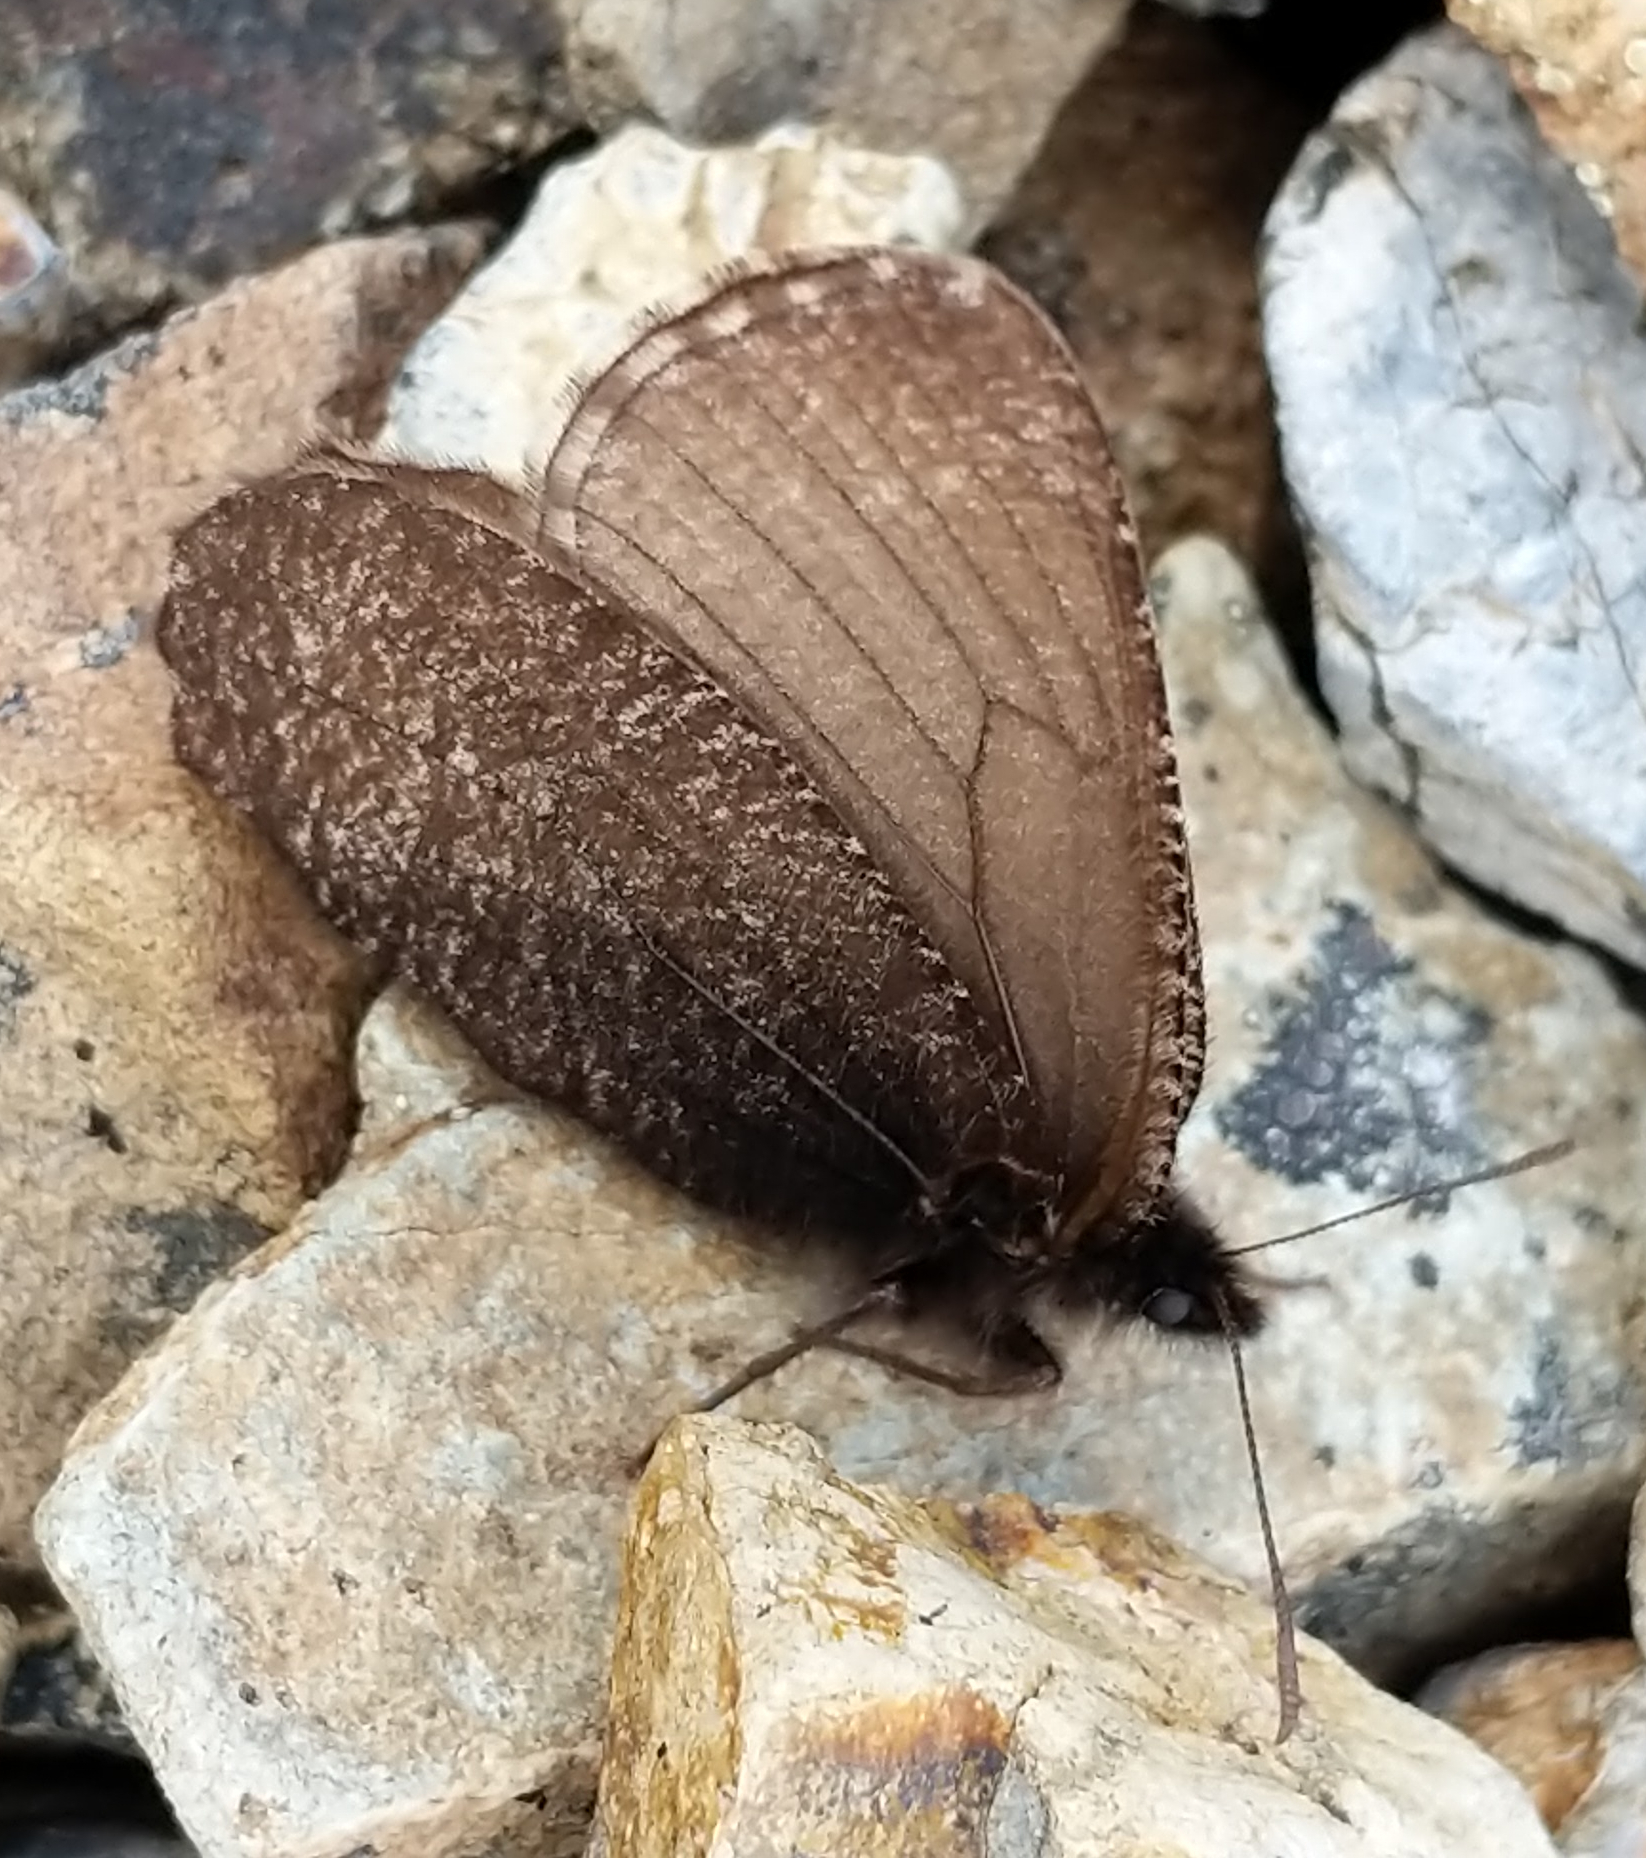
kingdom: Animalia
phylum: Arthropoda
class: Insecta
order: Lepidoptera
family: Nymphalidae
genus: Oeneis
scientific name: Oeneis melissa
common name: Melissa arctic
